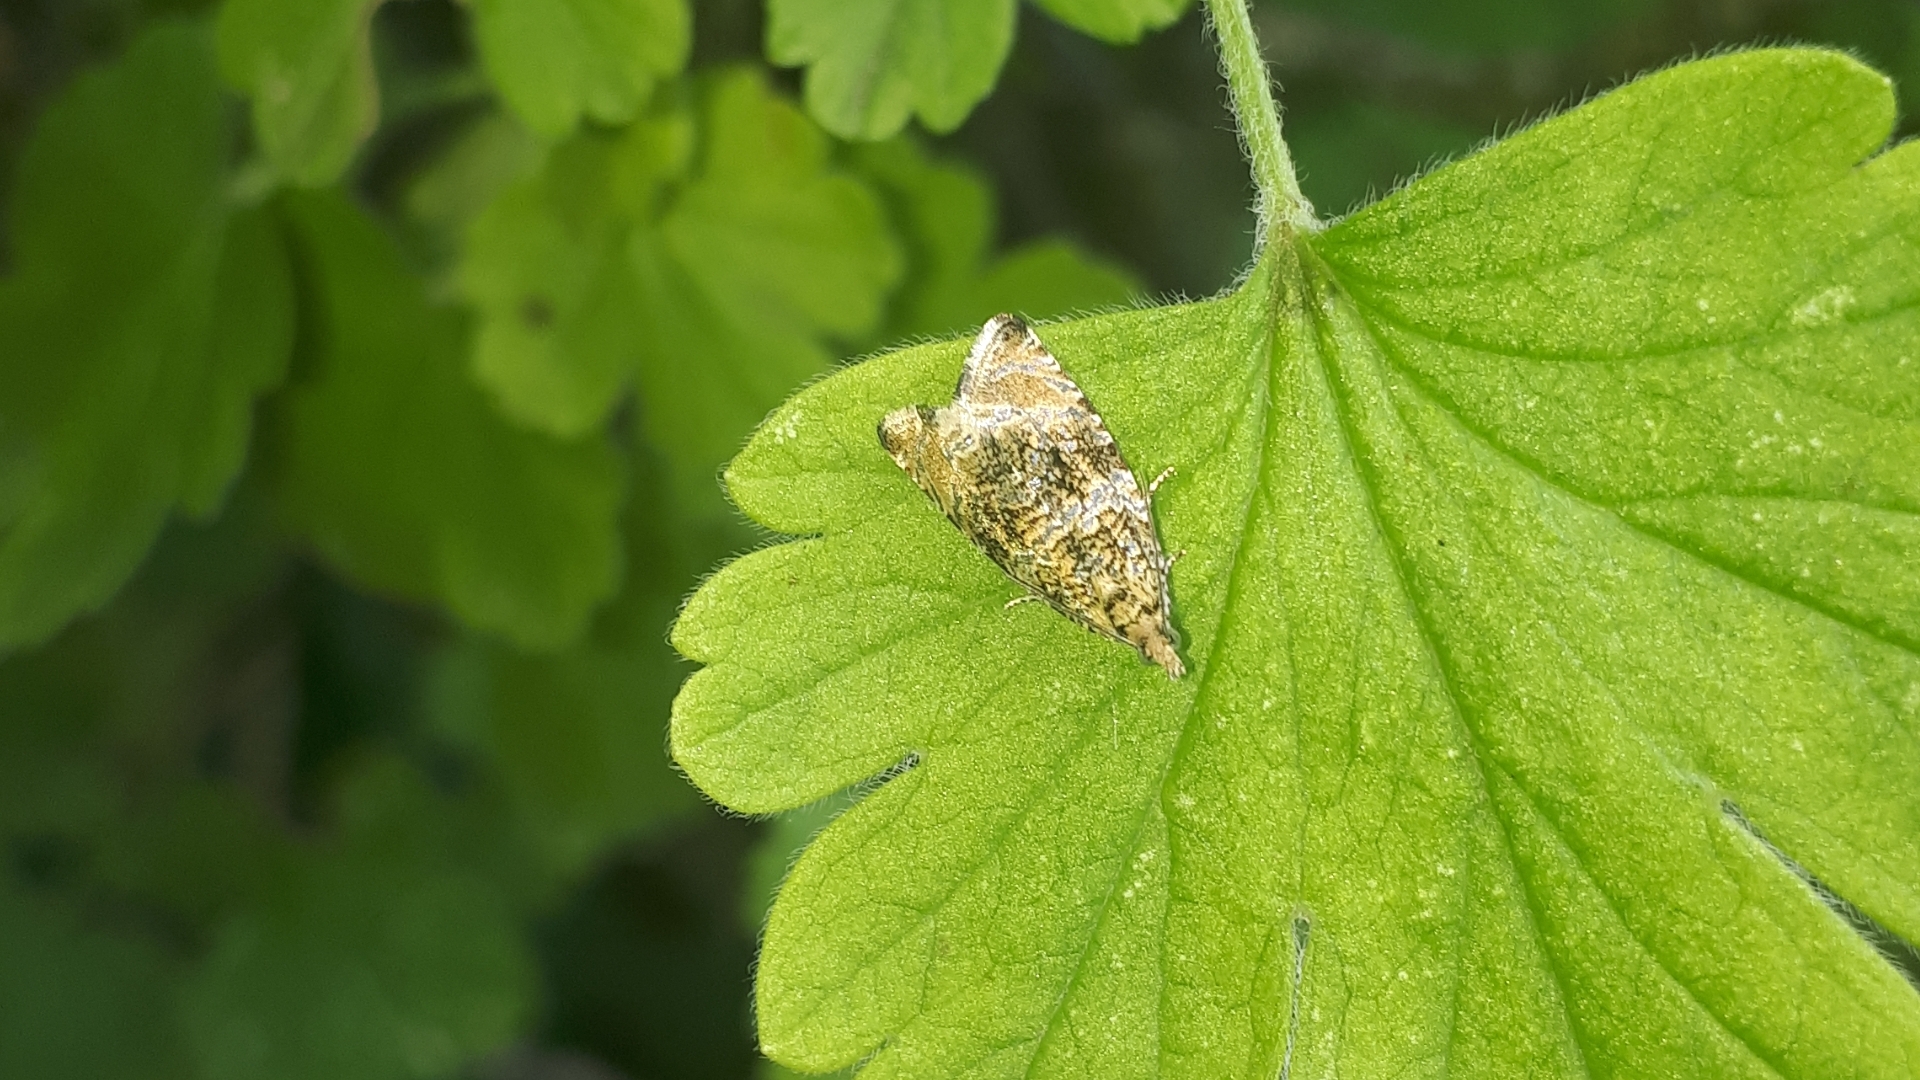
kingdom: Animalia
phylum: Arthropoda
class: Insecta
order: Lepidoptera
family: Tortricidae
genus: Syricoris
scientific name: Syricoris lacunana
